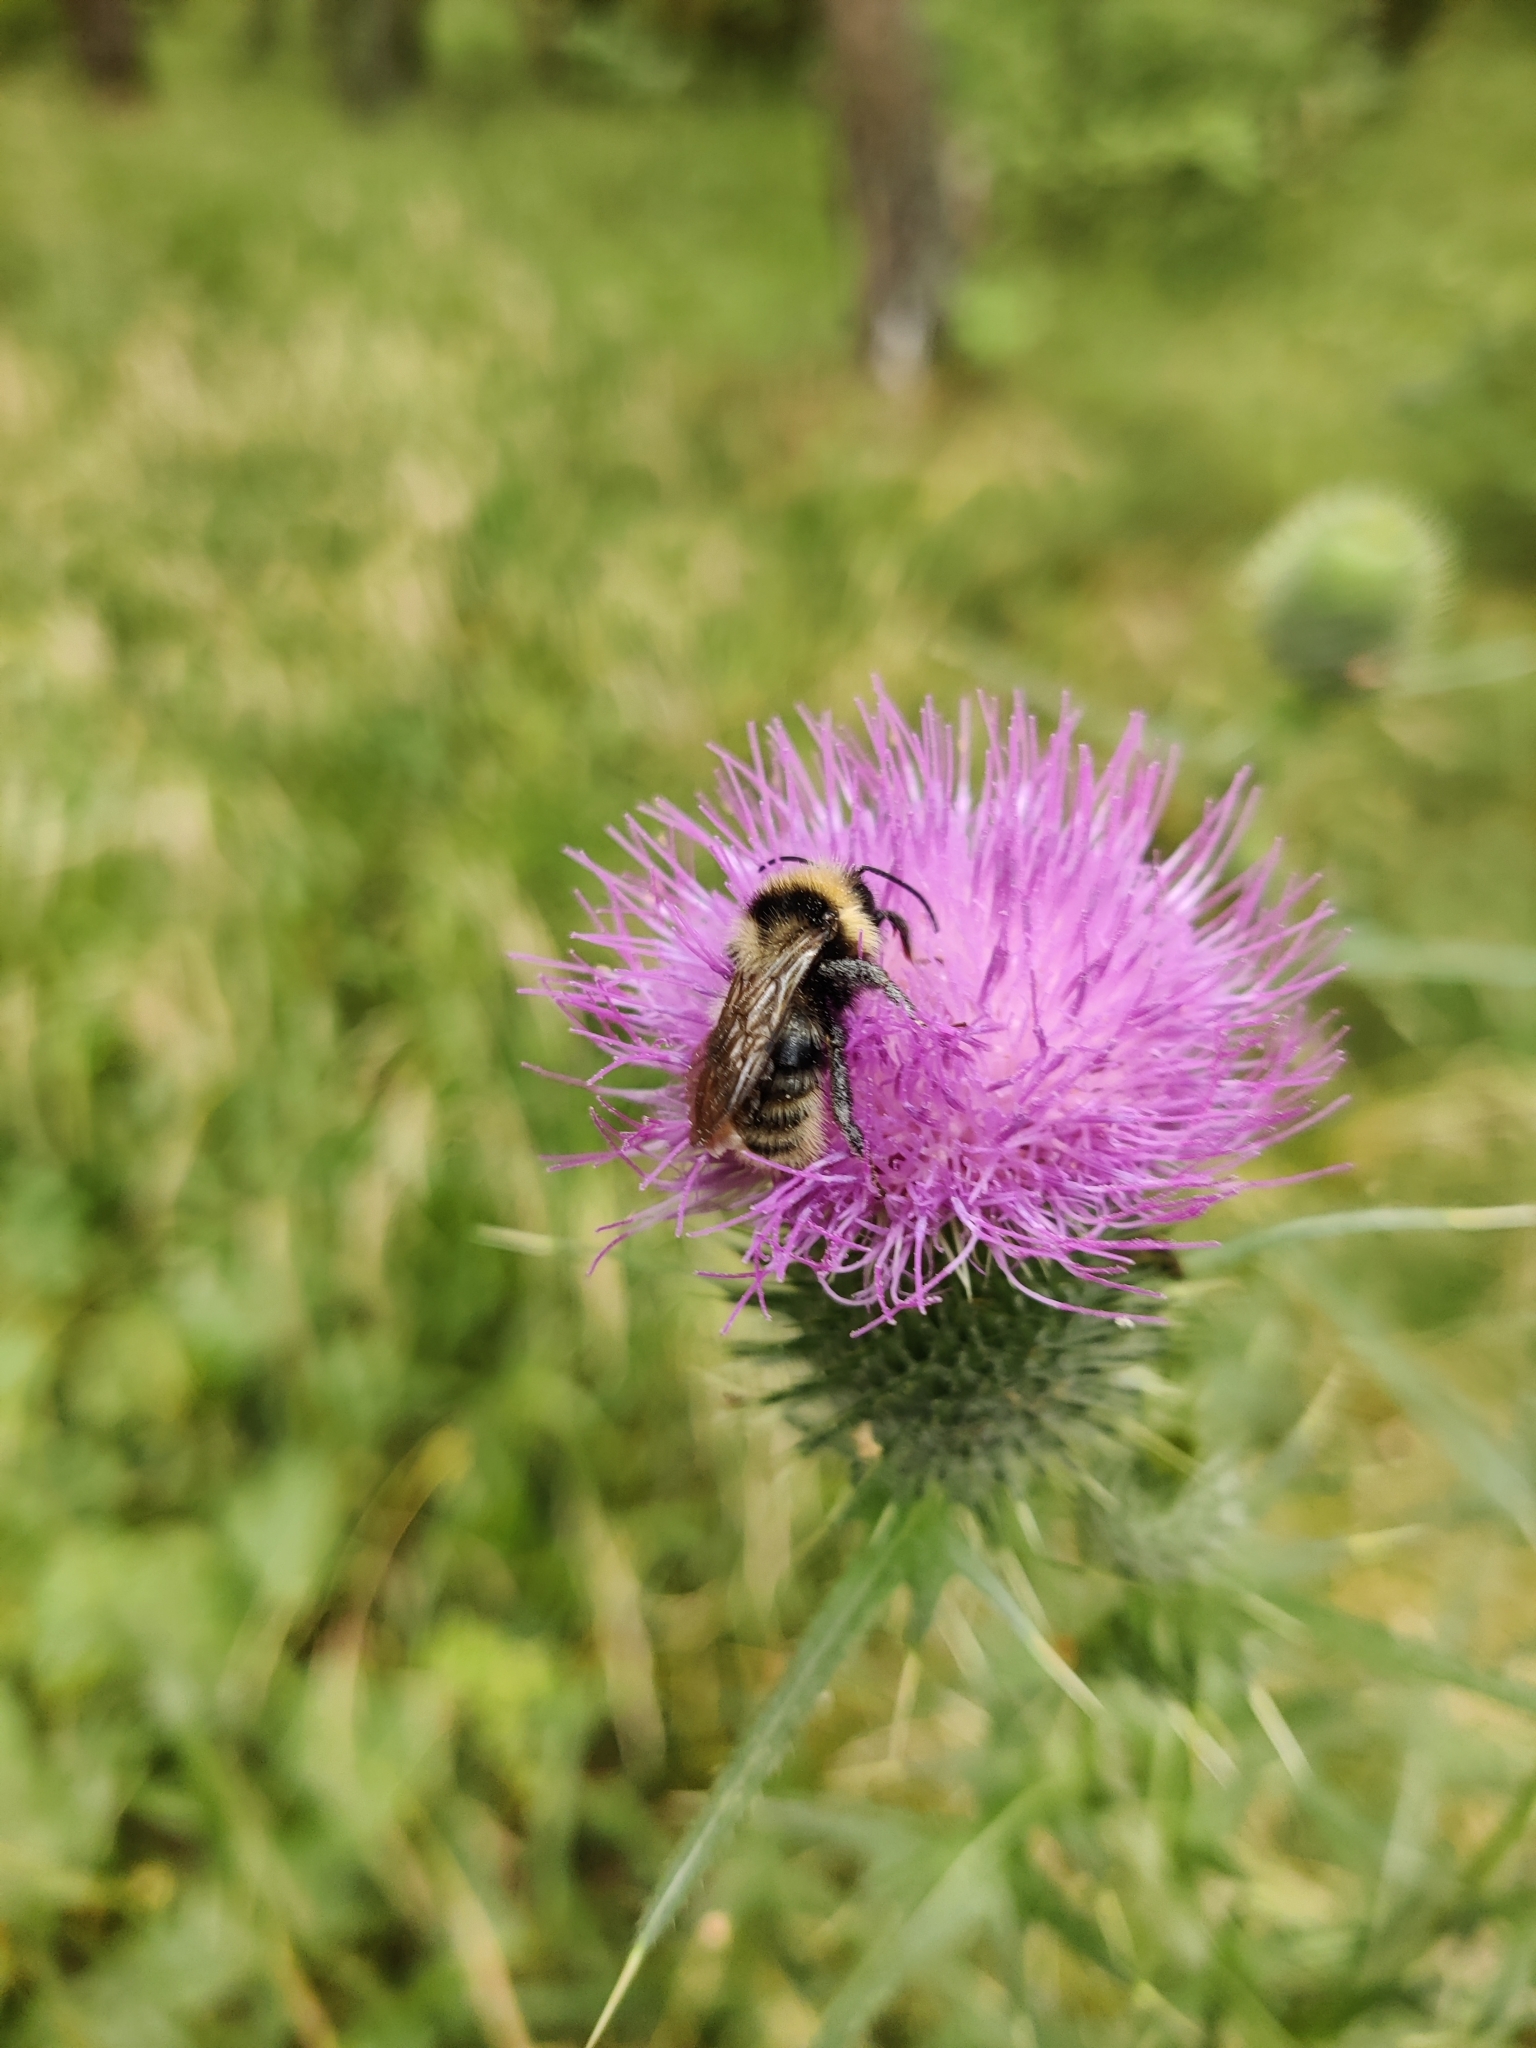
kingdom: Animalia
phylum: Arthropoda
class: Insecta
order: Hymenoptera
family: Apidae
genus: Bombus
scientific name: Bombus campestris
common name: Field cuckoo-bee
